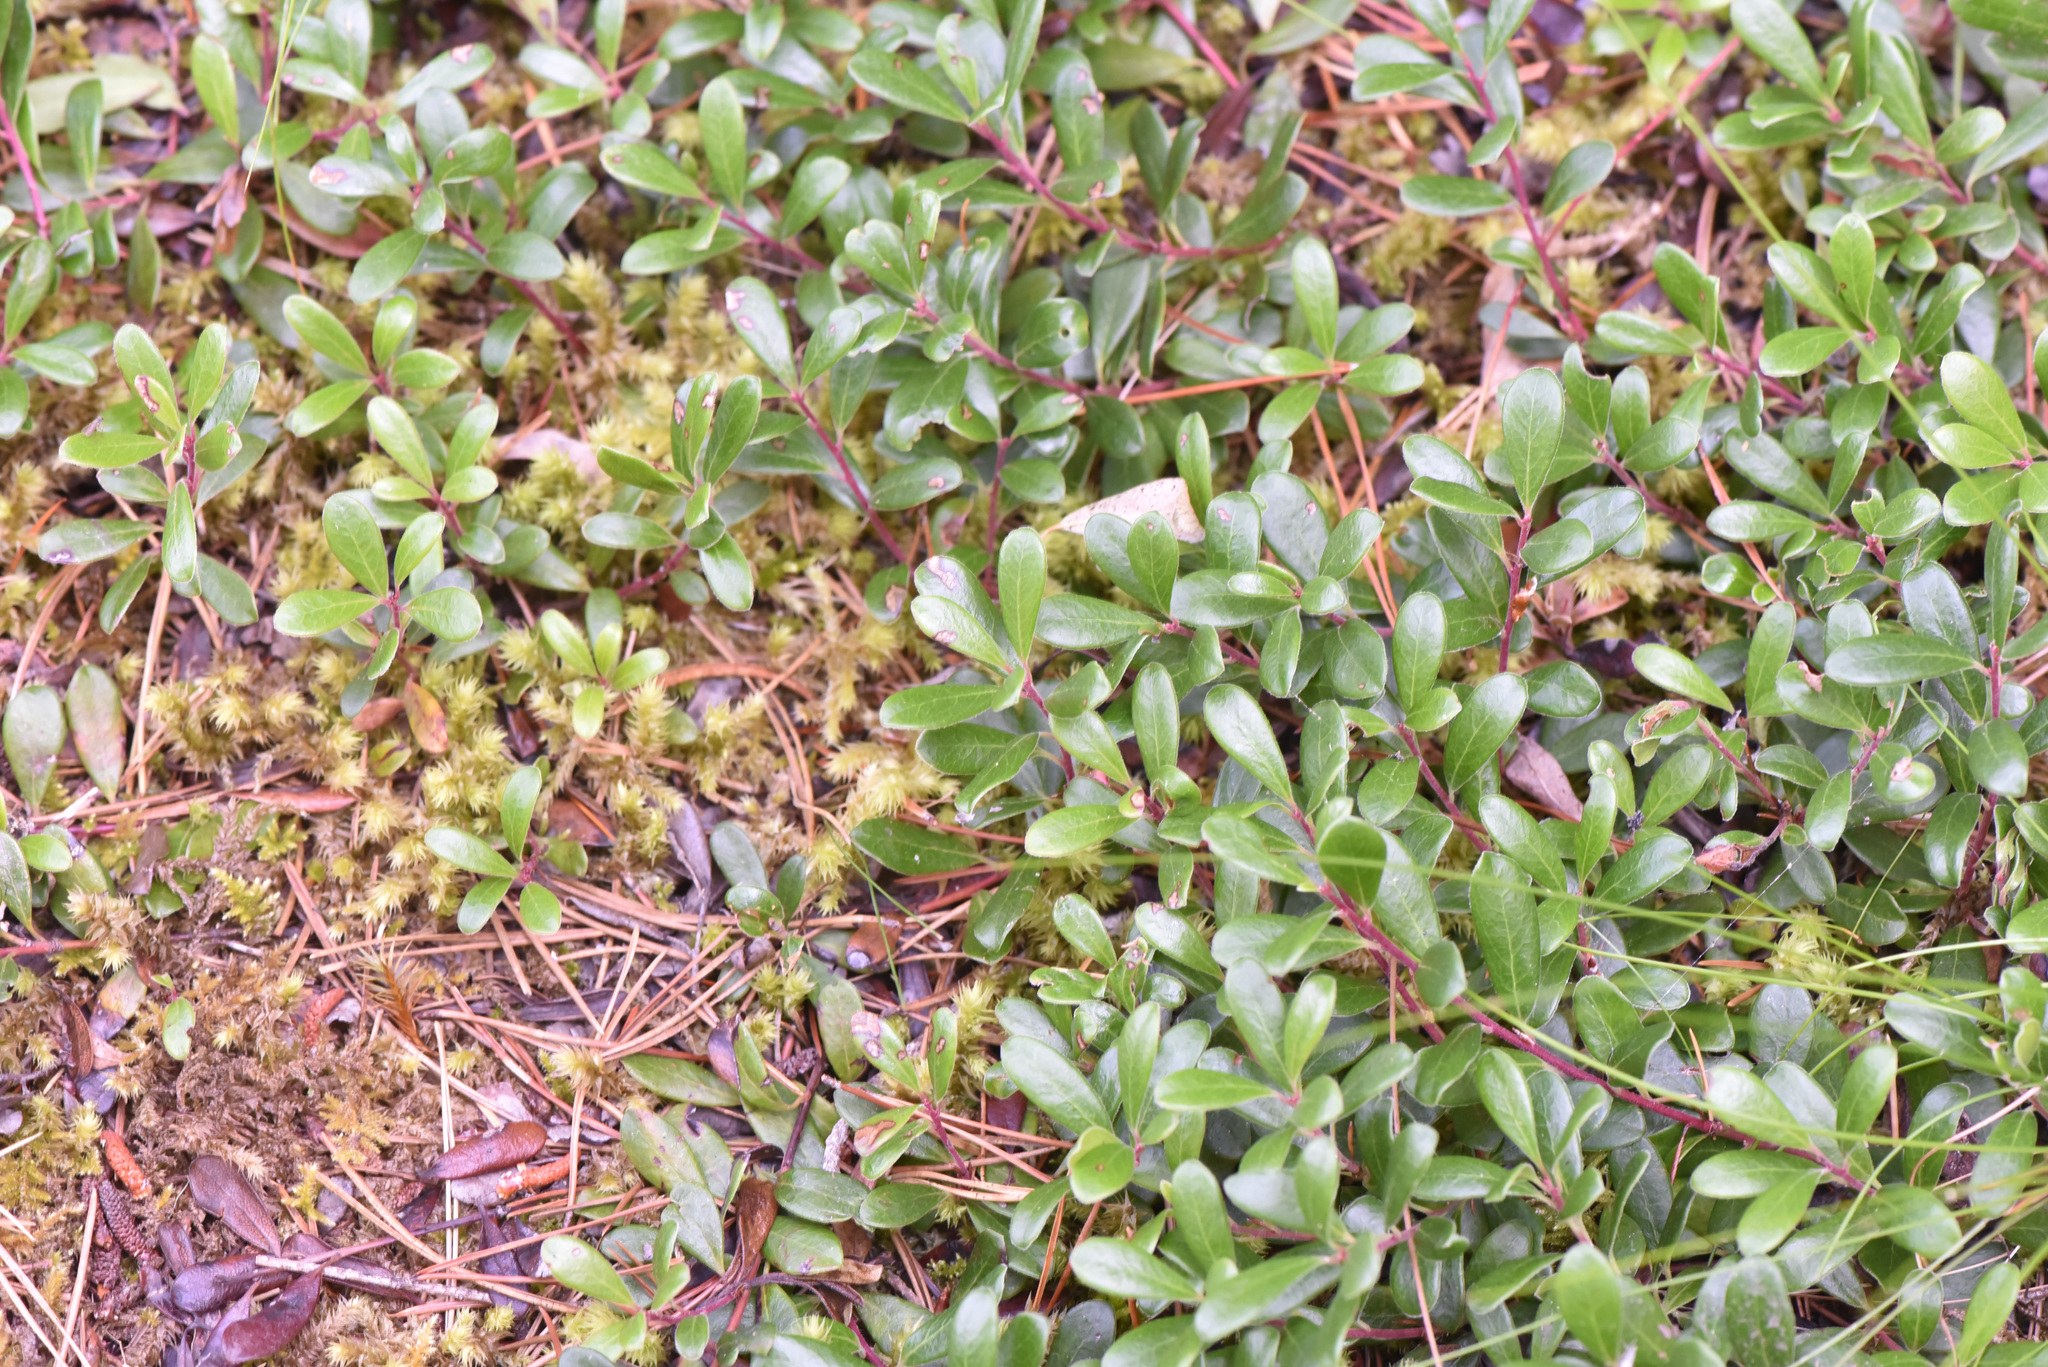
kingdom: Plantae
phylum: Tracheophyta
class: Magnoliopsida
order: Ericales
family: Ericaceae
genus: Arctostaphylos
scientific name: Arctostaphylos uva-ursi
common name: Bearberry
